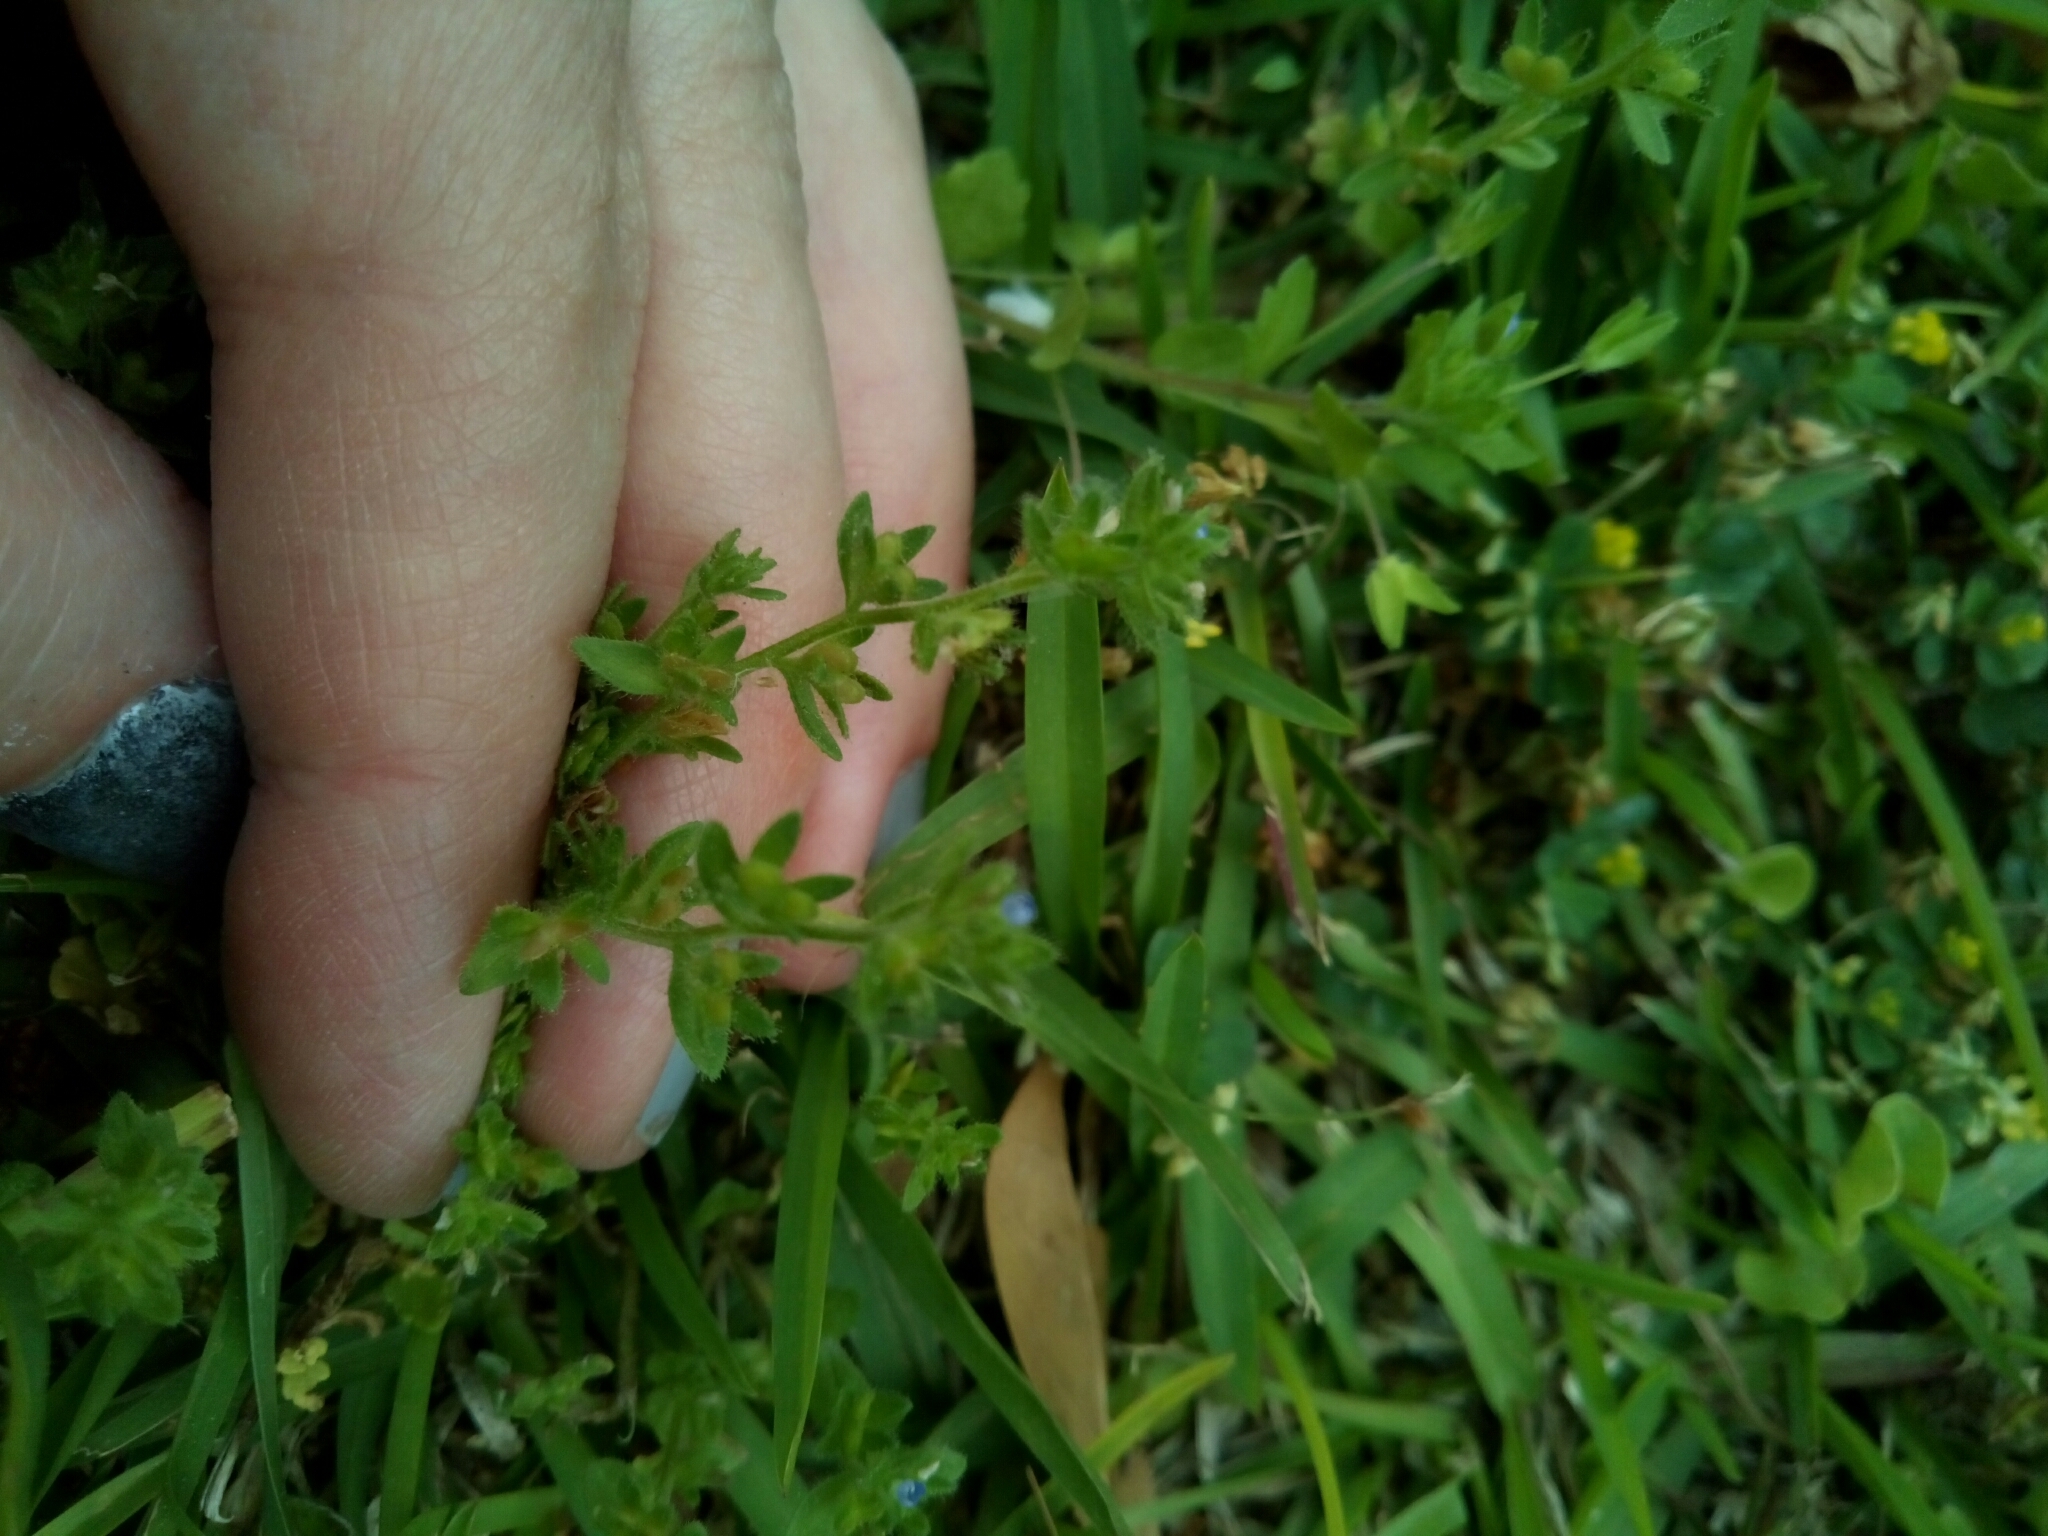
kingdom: Plantae
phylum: Tracheophyta
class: Magnoliopsida
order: Lamiales
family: Plantaginaceae
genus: Veronica
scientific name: Veronica arvensis
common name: Corn speedwell
